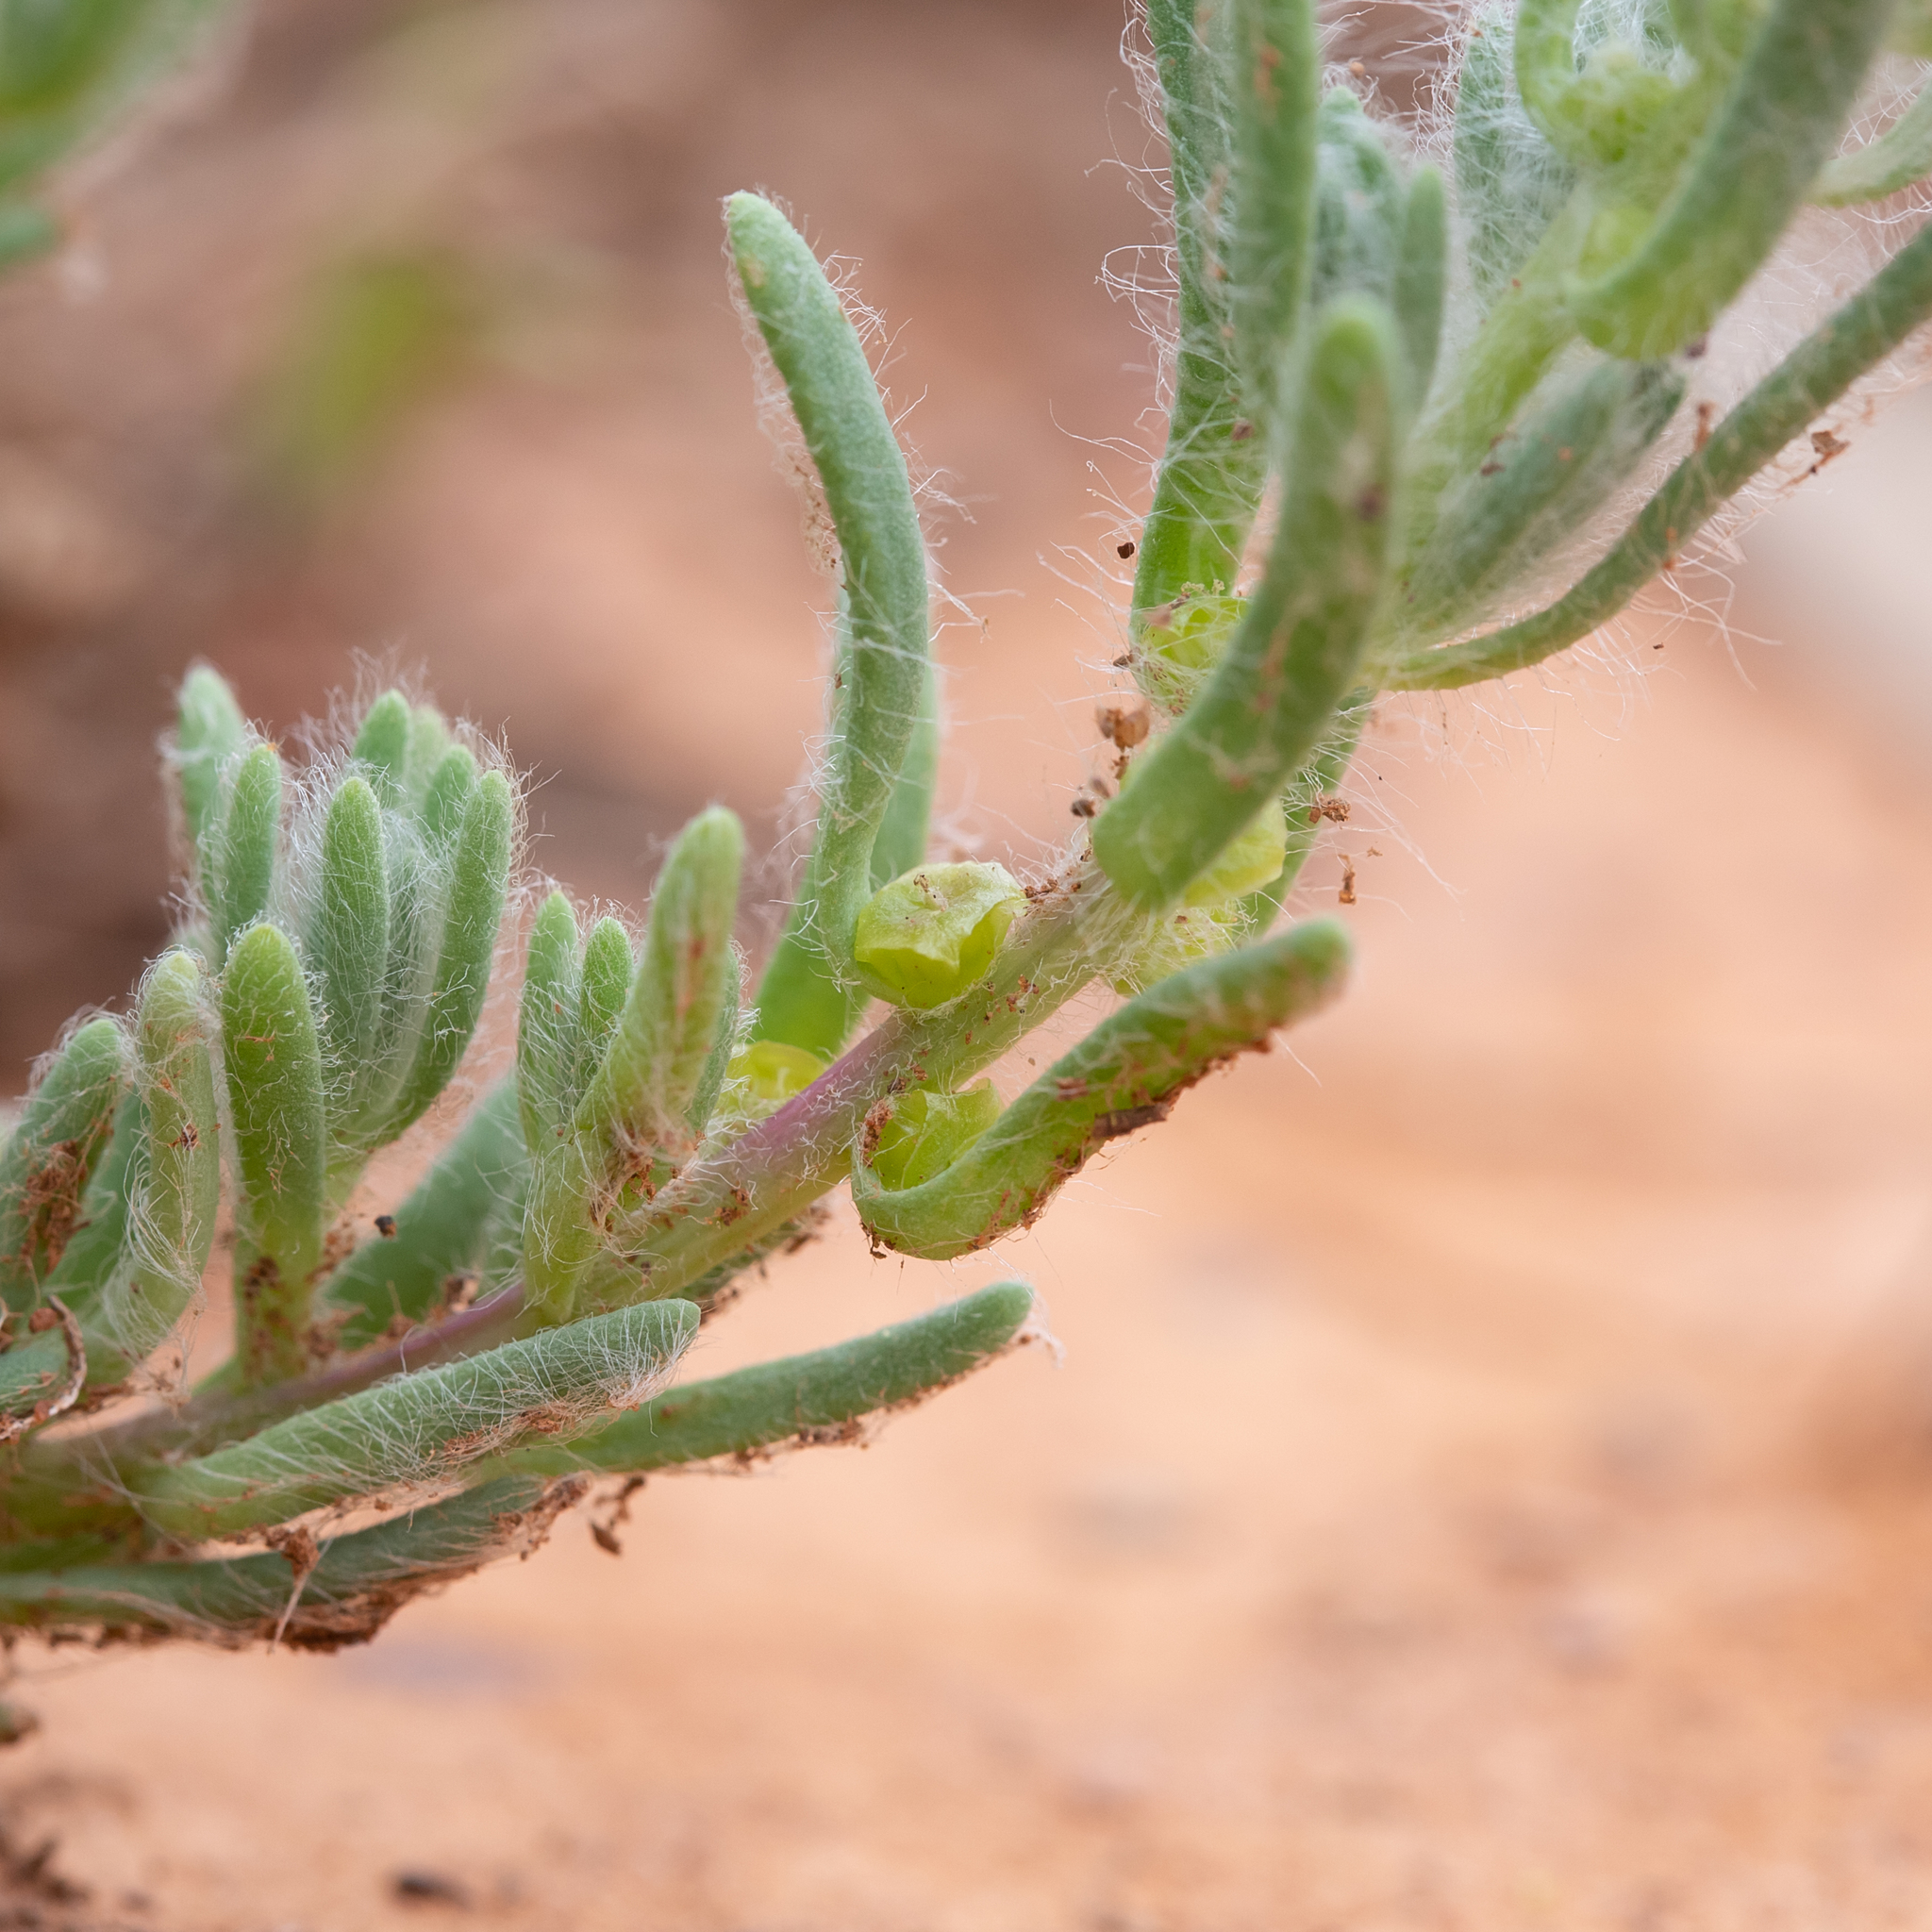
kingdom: Plantae
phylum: Tracheophyta
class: Magnoliopsida
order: Caryophyllales
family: Amaranthaceae
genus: Sclerolaena
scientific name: Sclerolaena brachyptera
